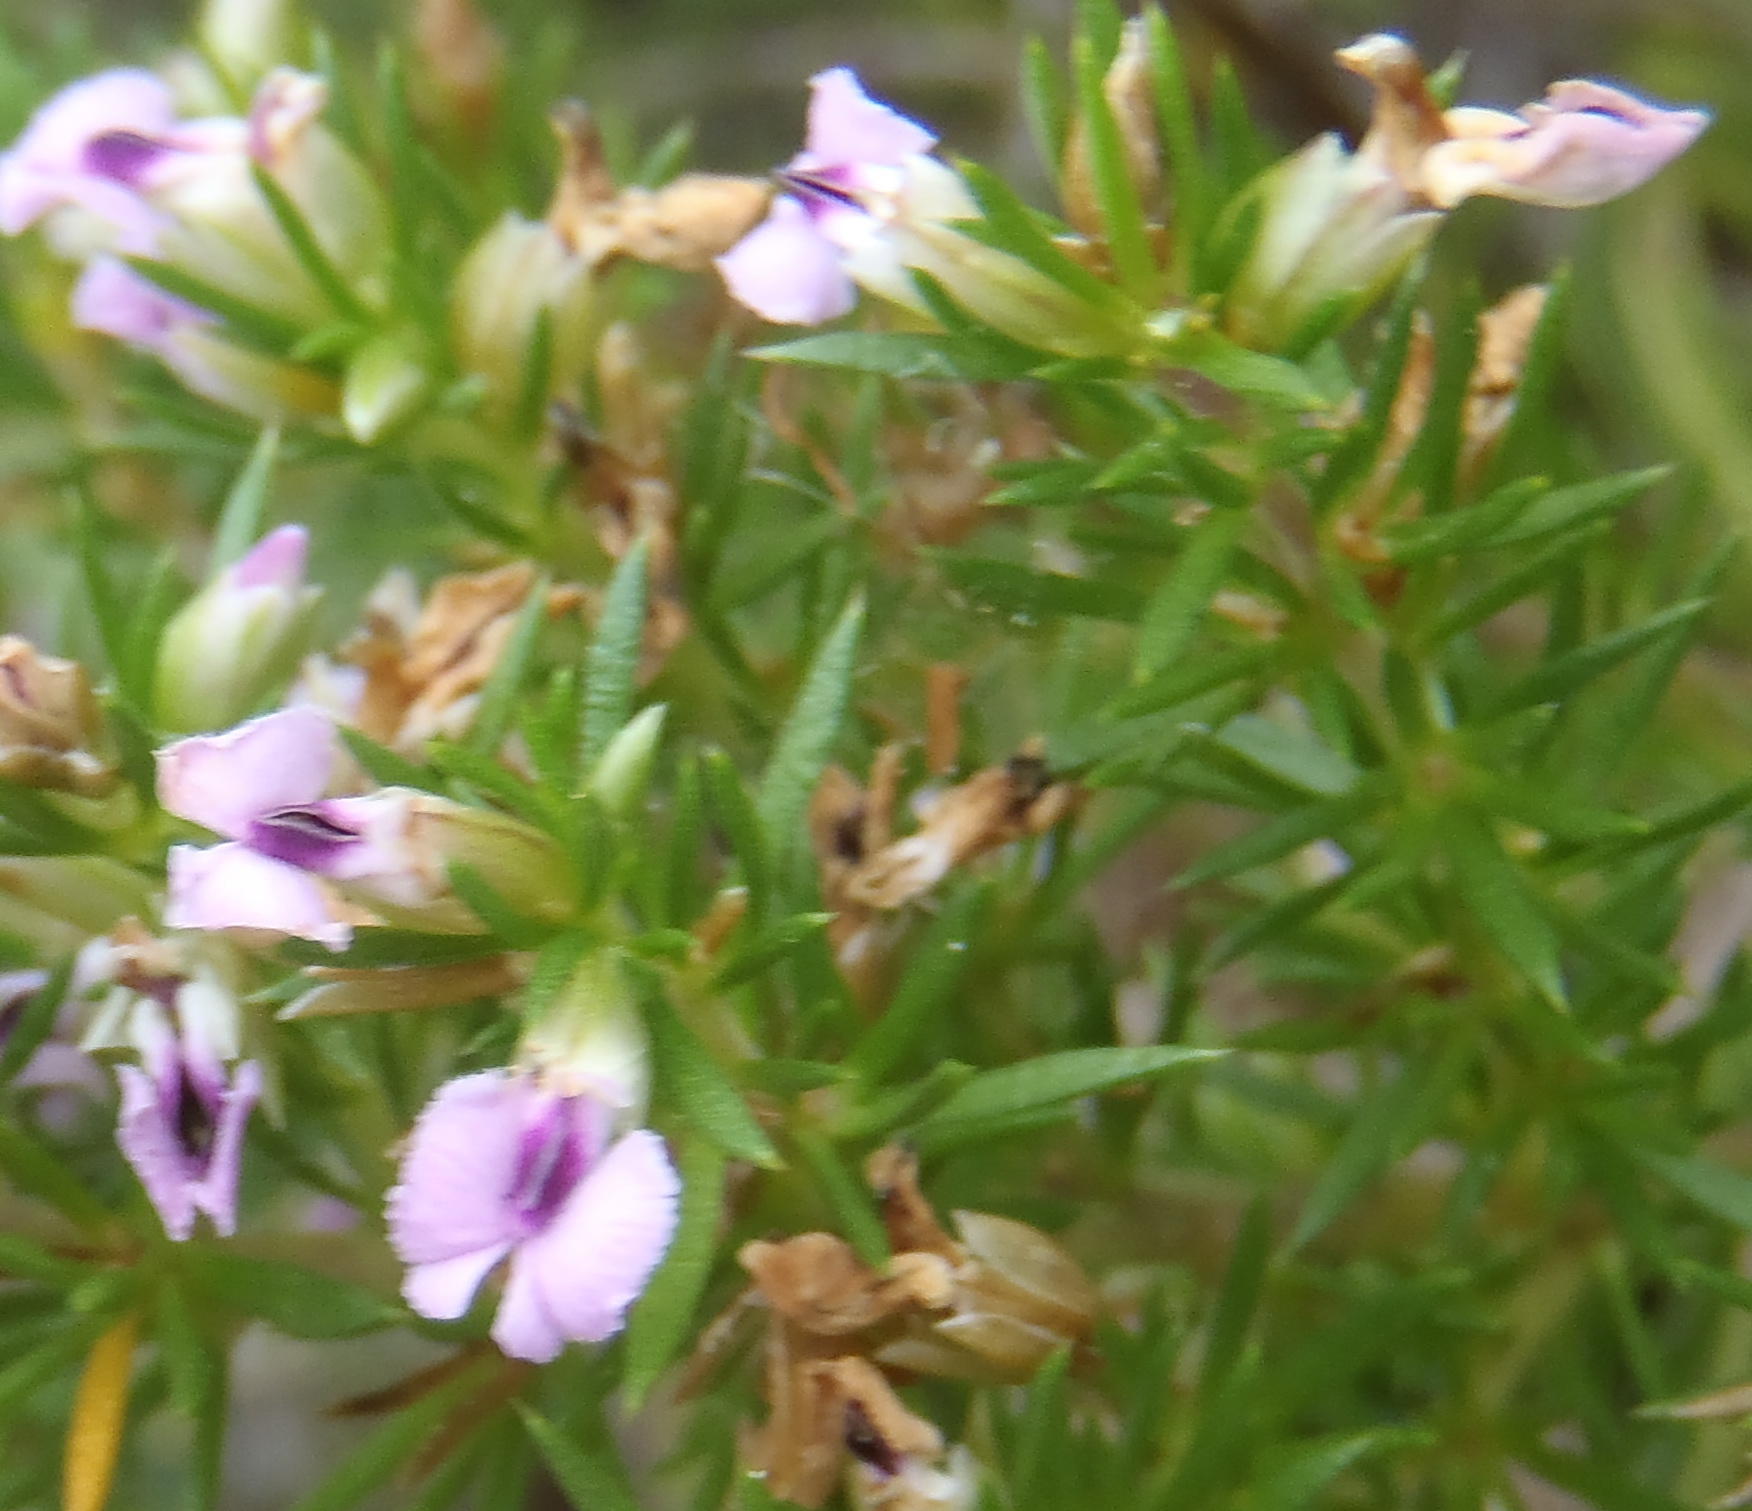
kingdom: Plantae
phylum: Tracheophyta
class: Magnoliopsida
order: Fabales
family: Polygalaceae
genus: Muraltia
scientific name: Muraltia ericifolia
